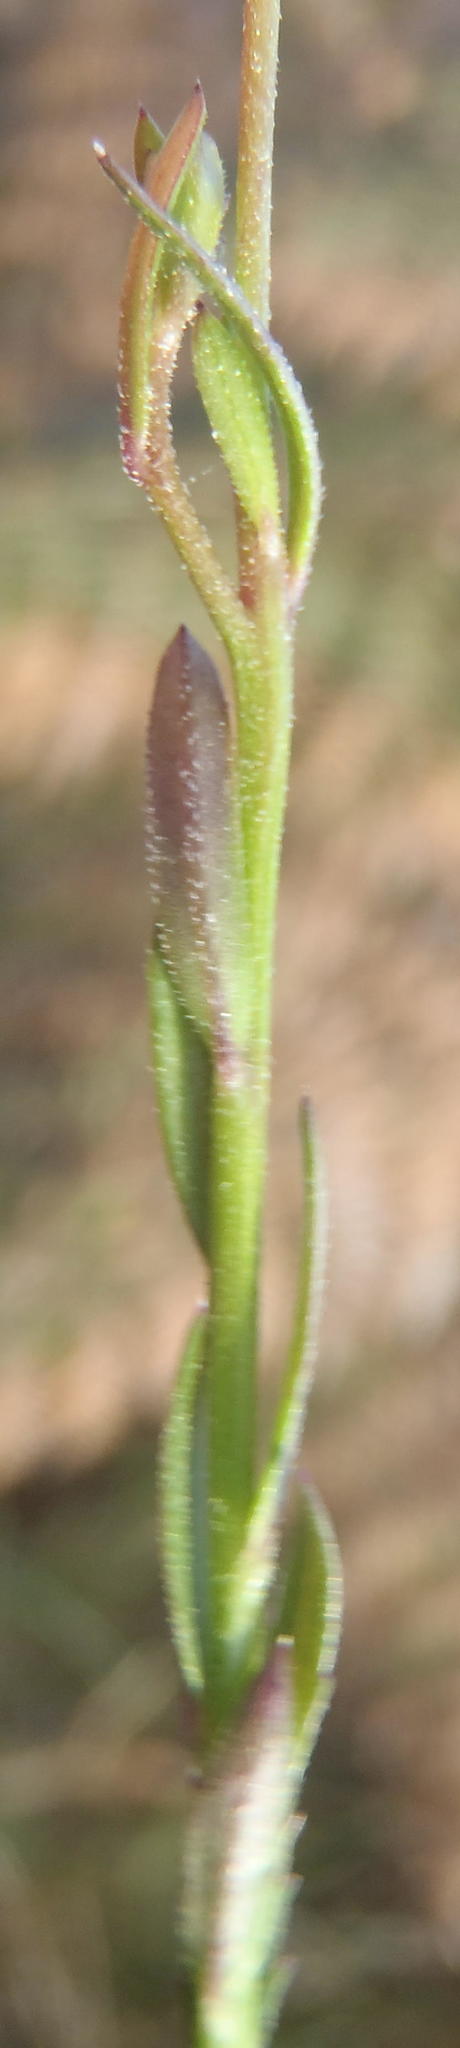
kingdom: Plantae
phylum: Tracheophyta
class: Magnoliopsida
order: Asterales
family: Campanulaceae
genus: Monopsis
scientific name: Monopsis unidentata
